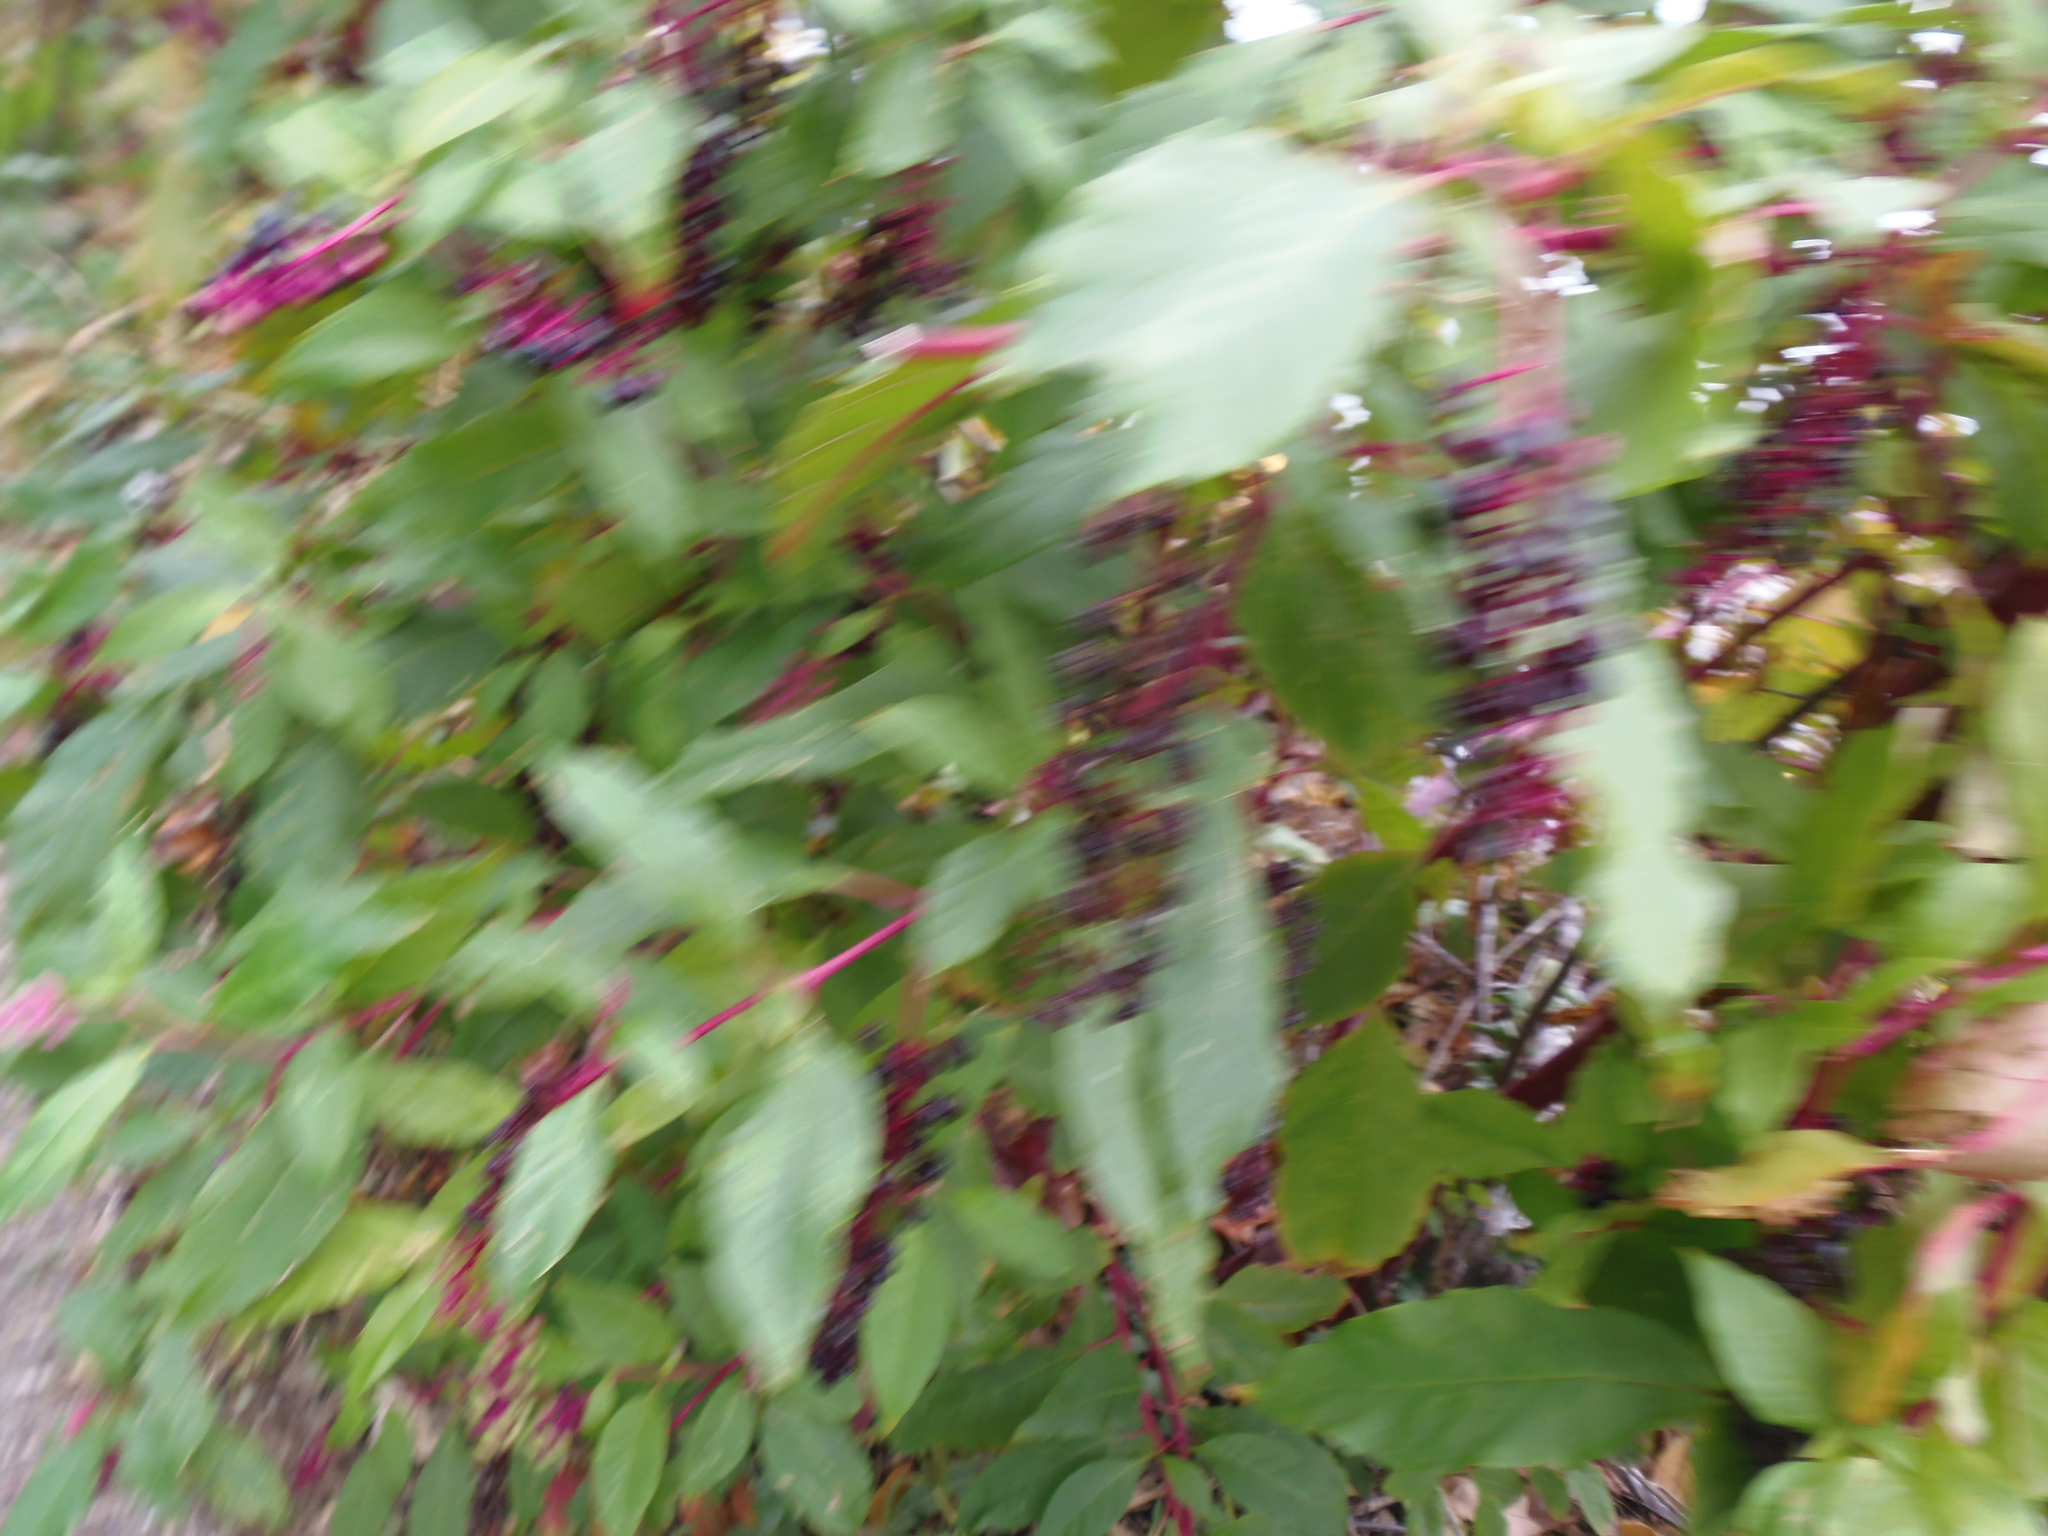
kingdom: Plantae
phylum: Tracheophyta
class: Magnoliopsida
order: Caryophyllales
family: Phytolaccaceae
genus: Phytolacca
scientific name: Phytolacca americana
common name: American pokeweed
